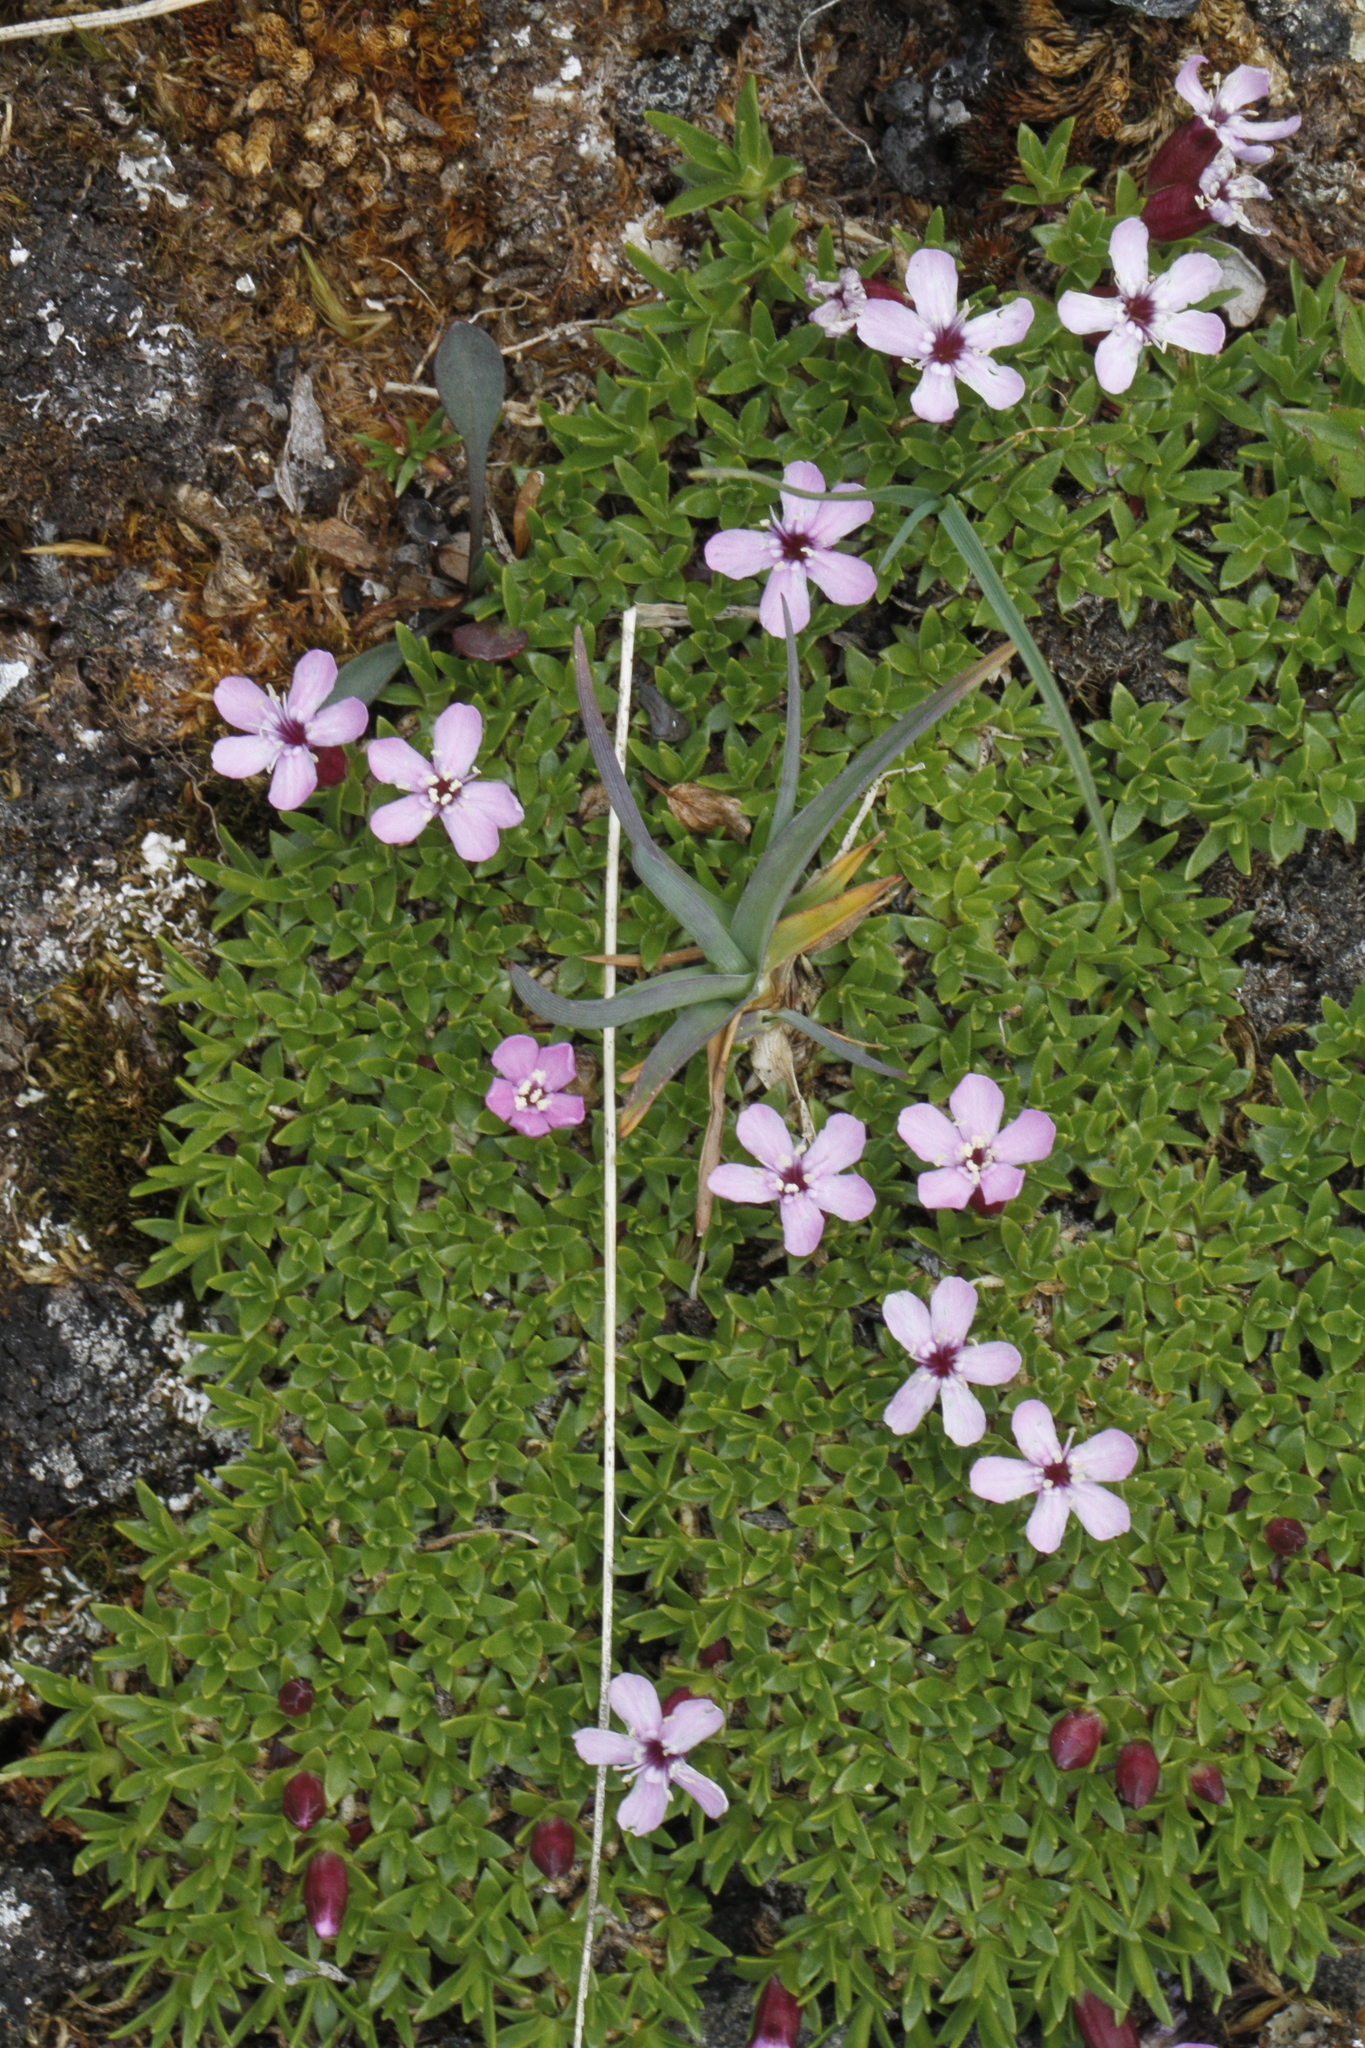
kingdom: Plantae
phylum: Tracheophyta
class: Magnoliopsida
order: Caryophyllales
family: Caryophyllaceae
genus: Silene
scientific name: Silene acaulis
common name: Moss campion
